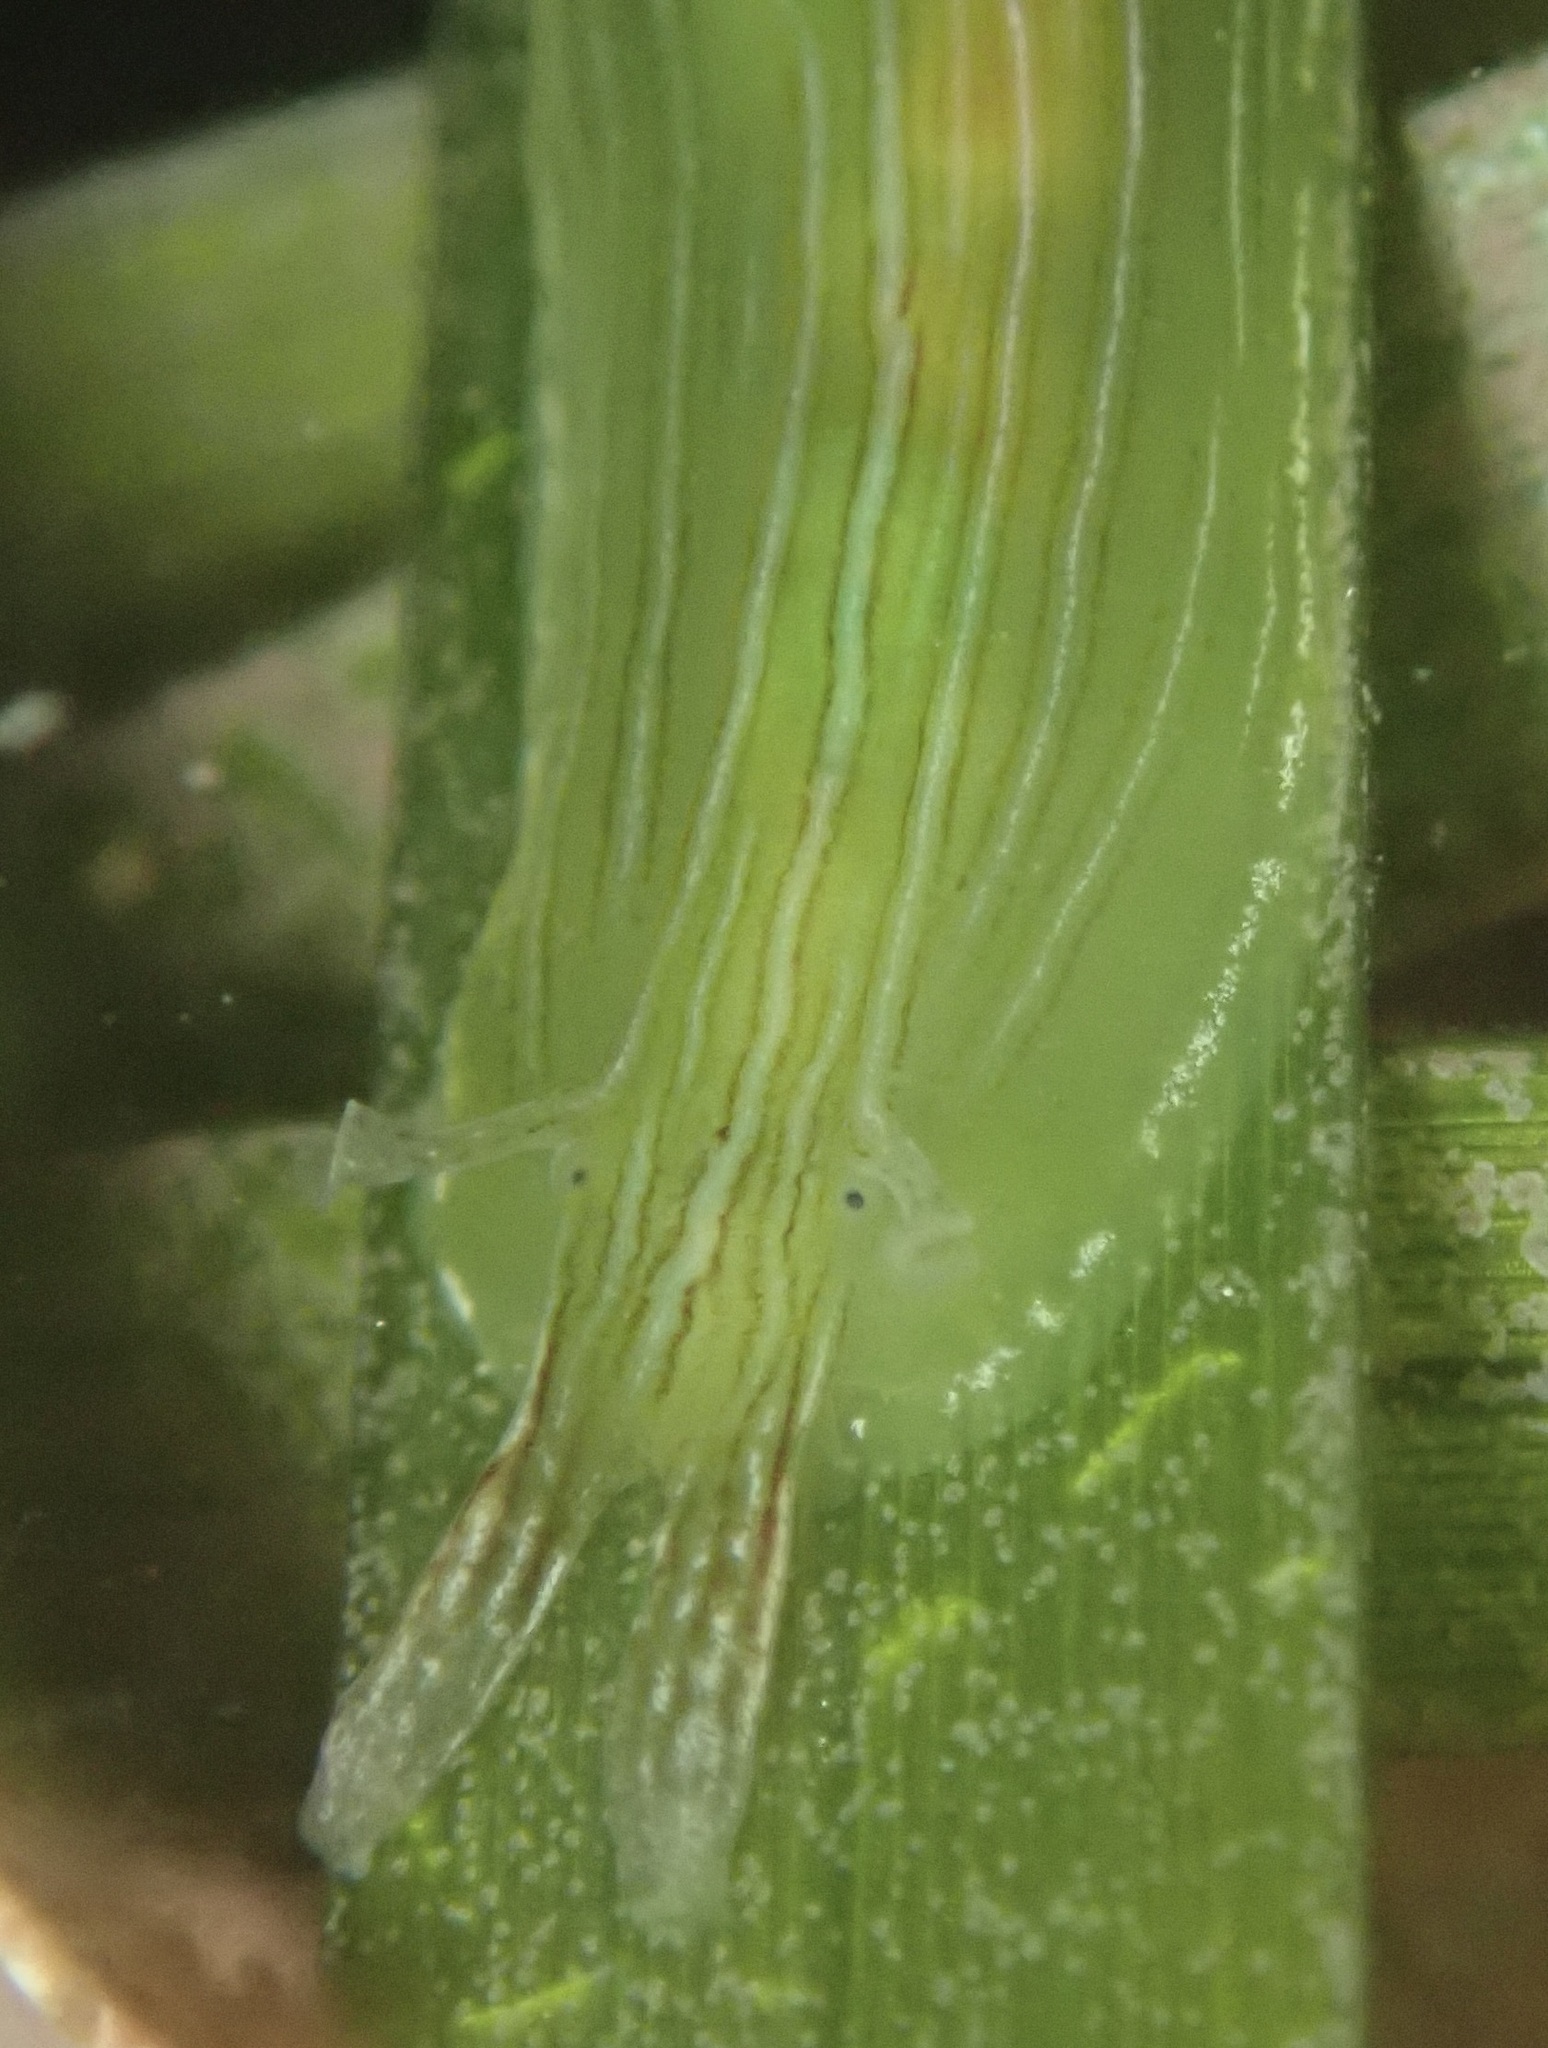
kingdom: Animalia
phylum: Mollusca
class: Gastropoda
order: Aplysiida
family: Aplysiidae
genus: Phyllaplysia
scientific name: Phyllaplysia taylori
